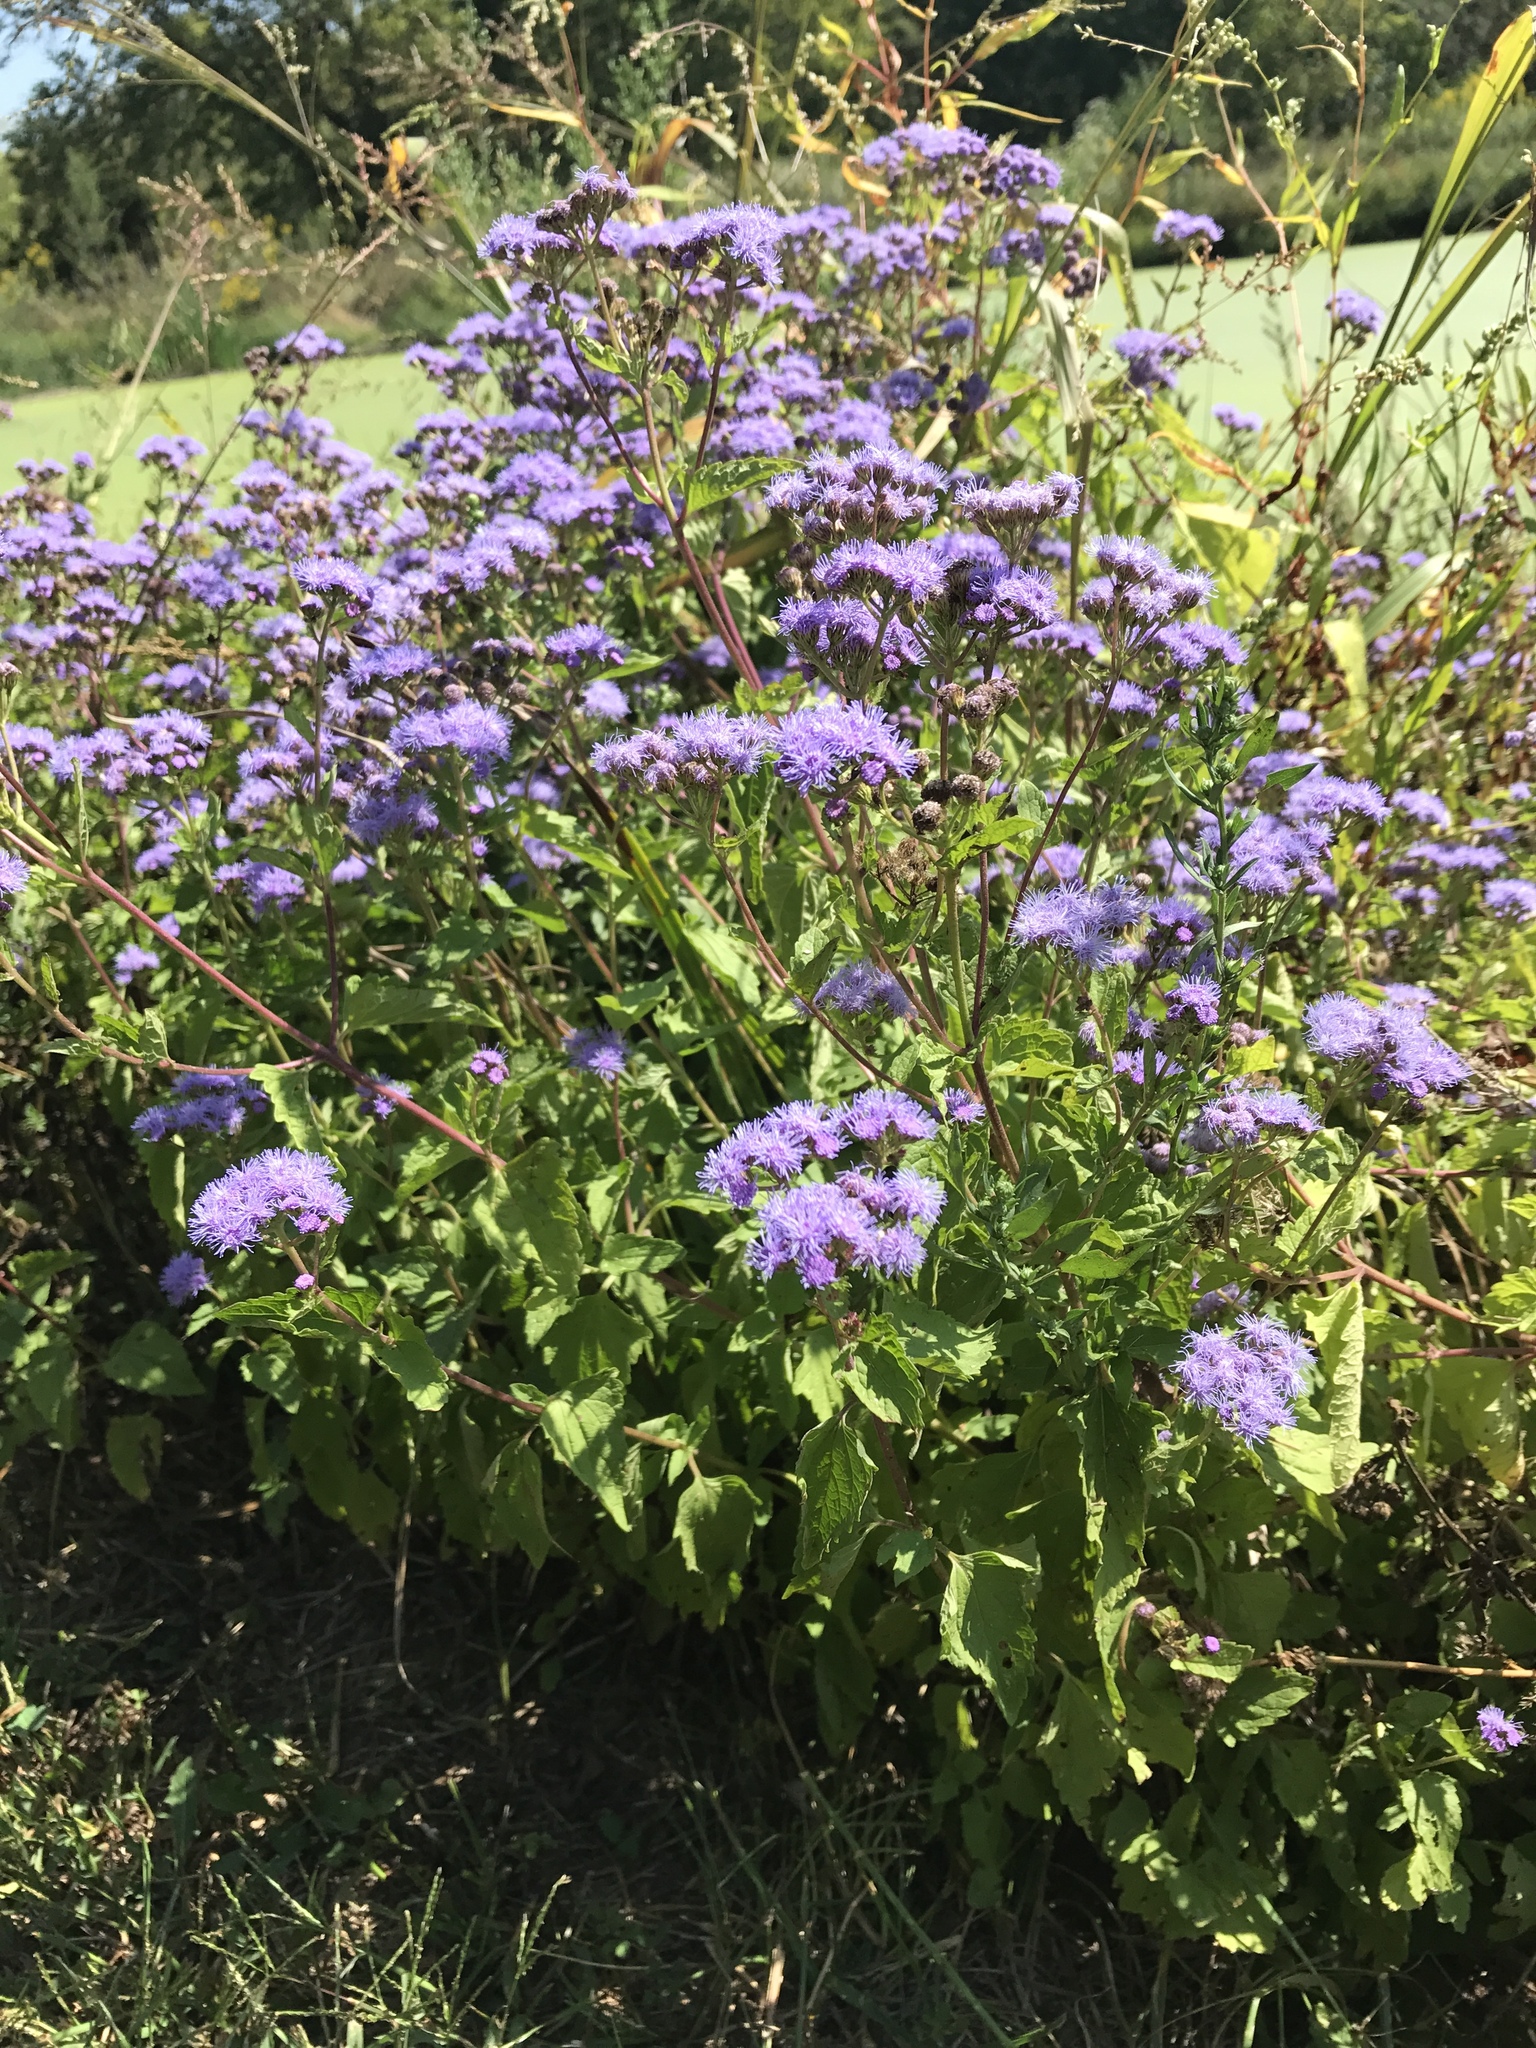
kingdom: Plantae
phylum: Tracheophyta
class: Magnoliopsida
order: Asterales
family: Asteraceae
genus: Conoclinium
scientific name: Conoclinium coelestinum
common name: Blue mistflower
